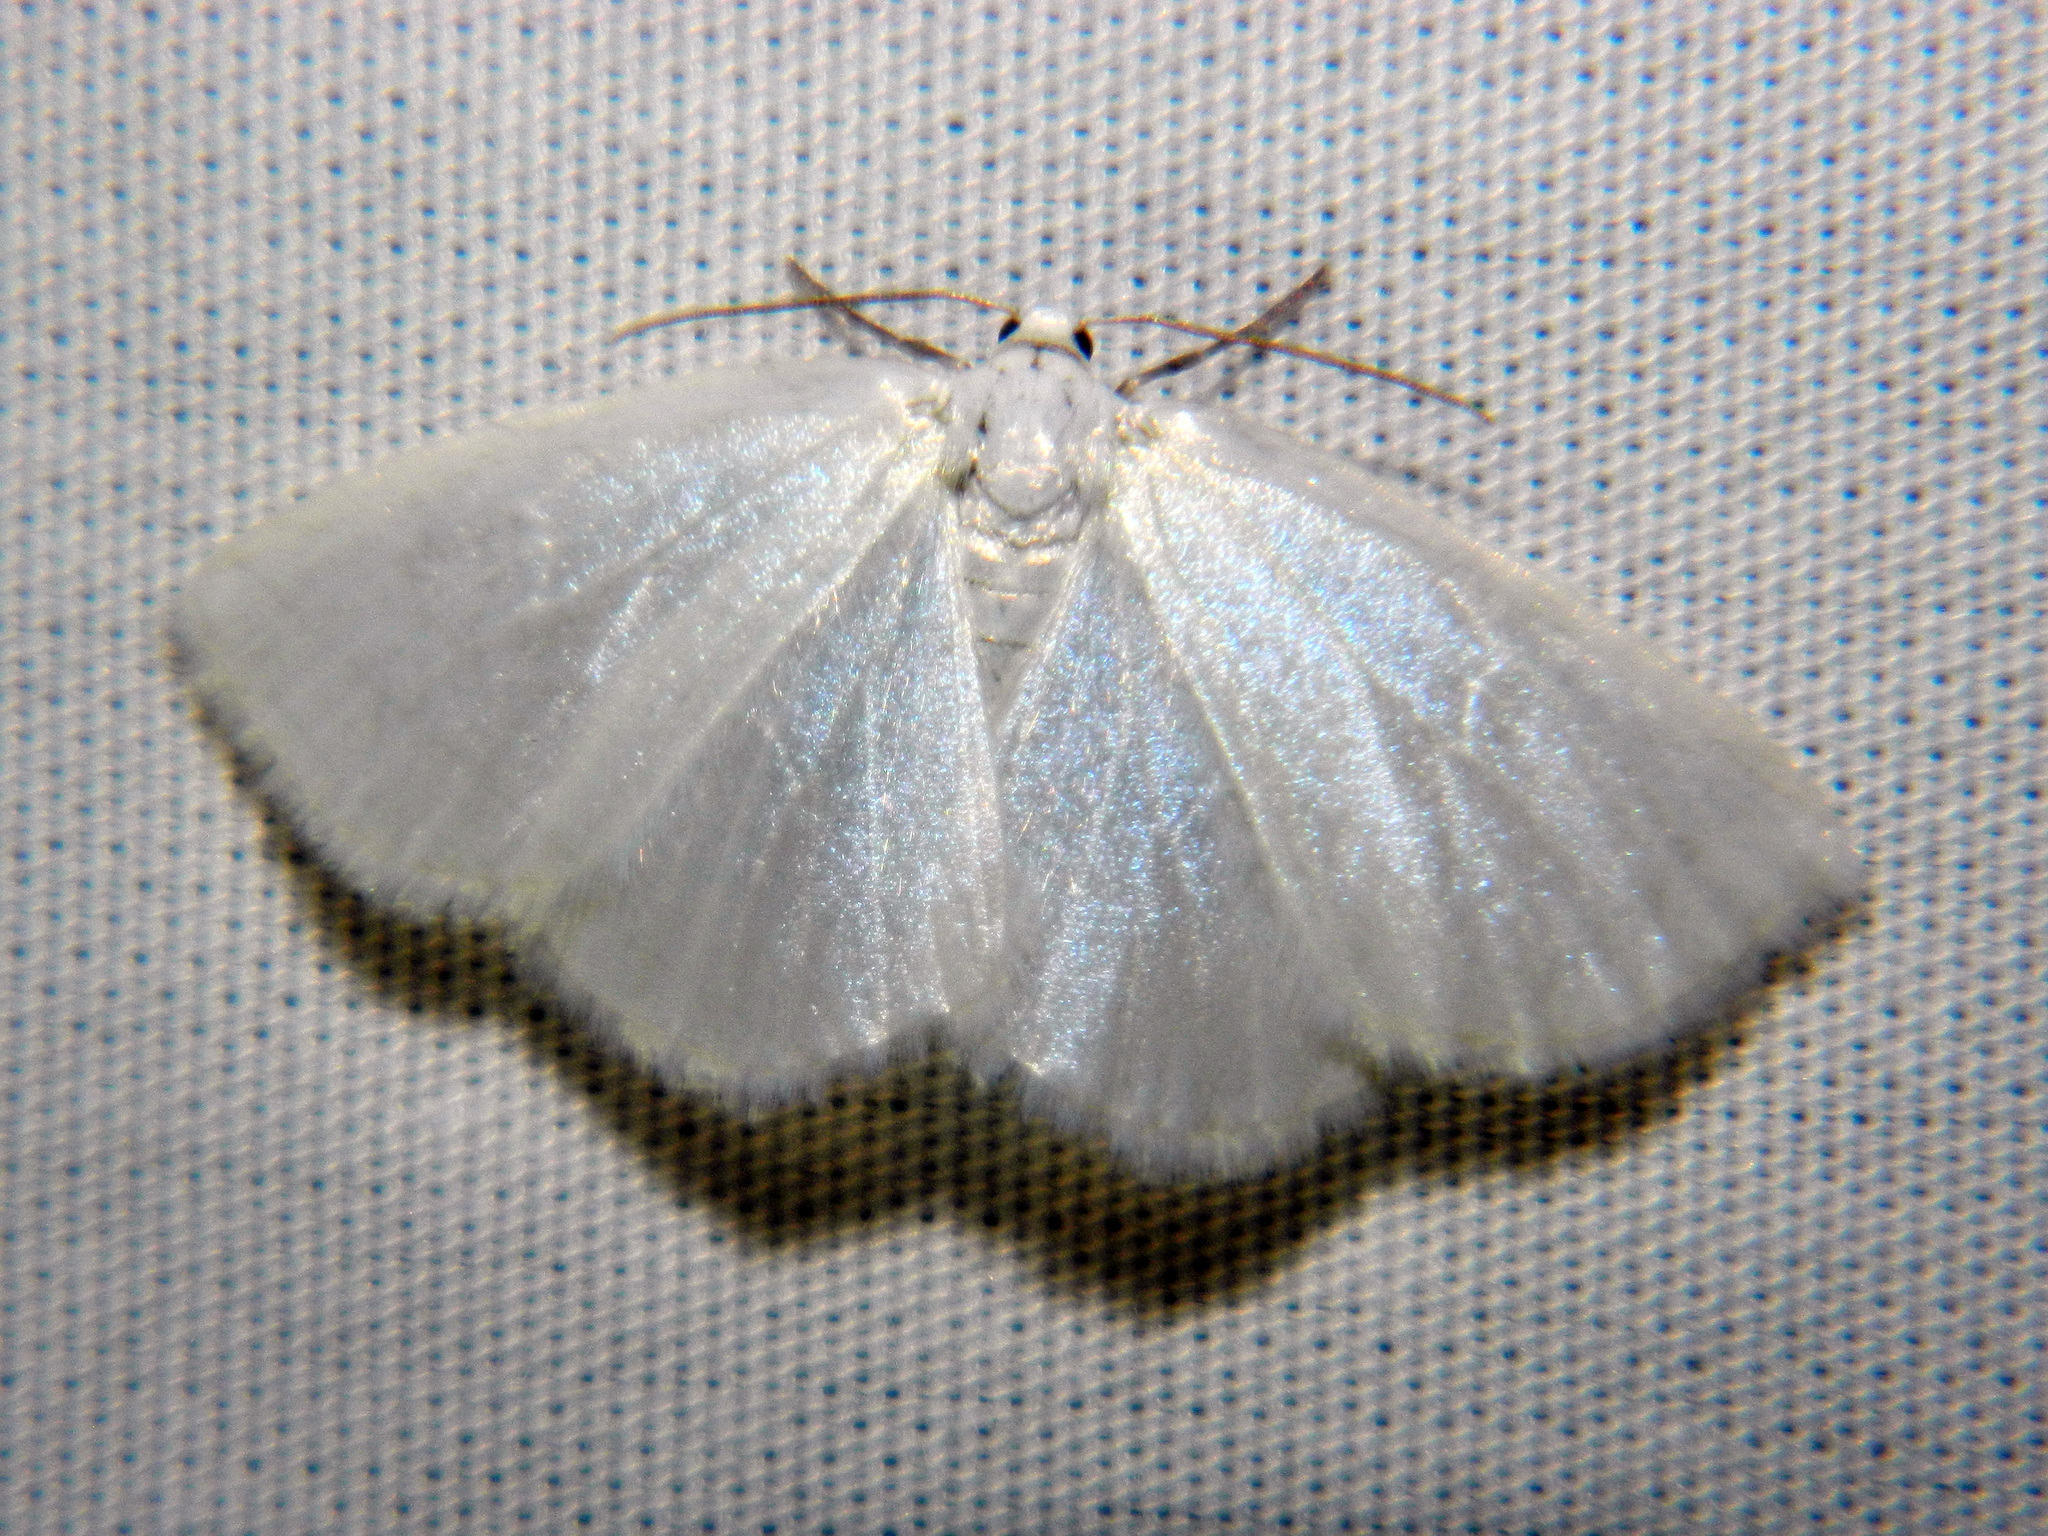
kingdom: Animalia
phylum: Arthropoda
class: Insecta
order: Lepidoptera
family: Geometridae
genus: Lomographa
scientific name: Lomographa vestaliata
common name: White spring moth
